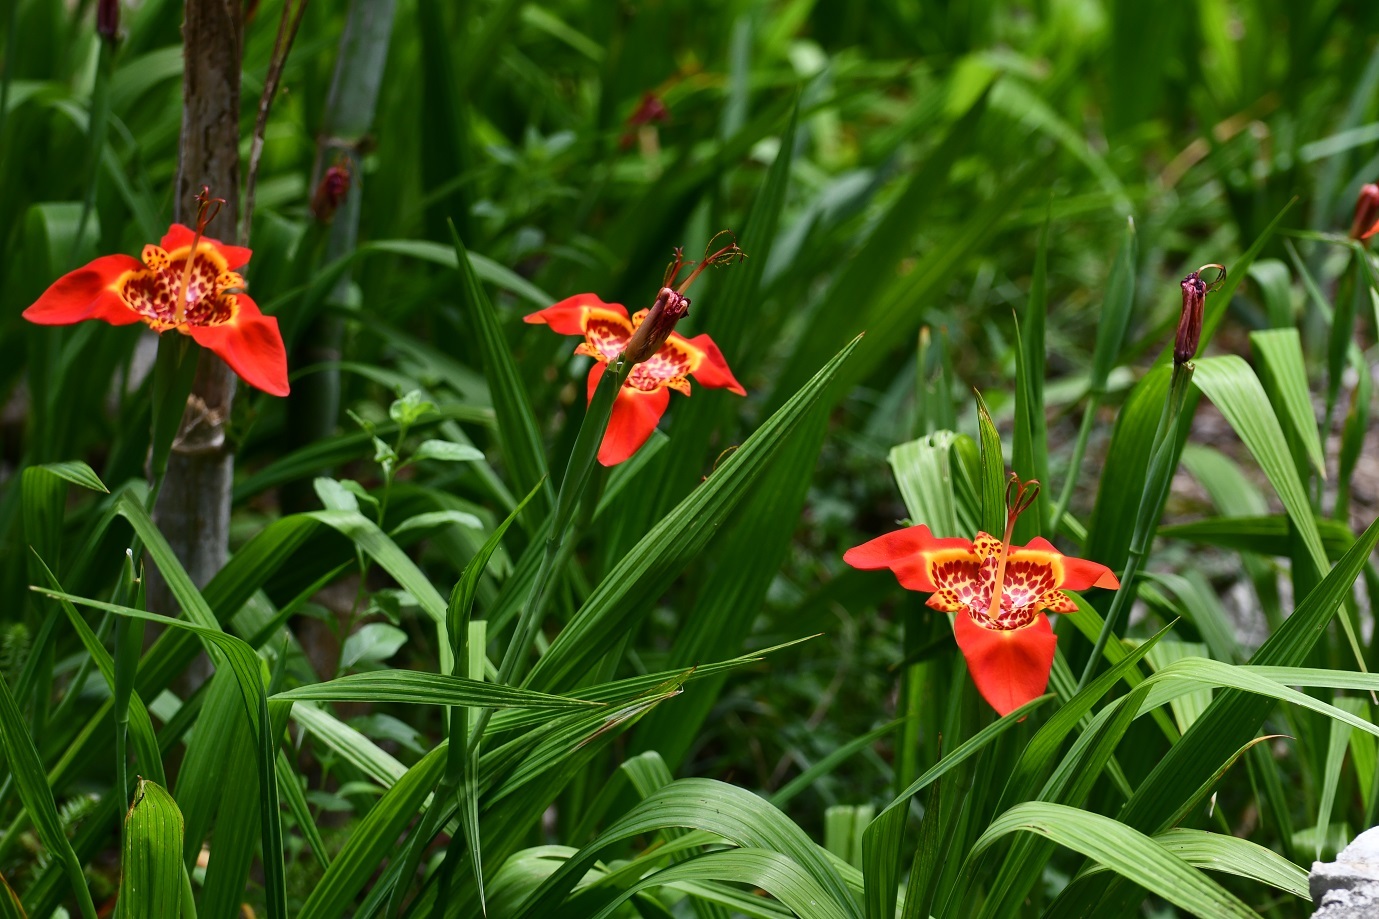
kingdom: Plantae
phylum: Tracheophyta
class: Liliopsida
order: Asparagales
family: Iridaceae
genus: Tigridia
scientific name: Tigridia pavonia
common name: Peacock-flower
